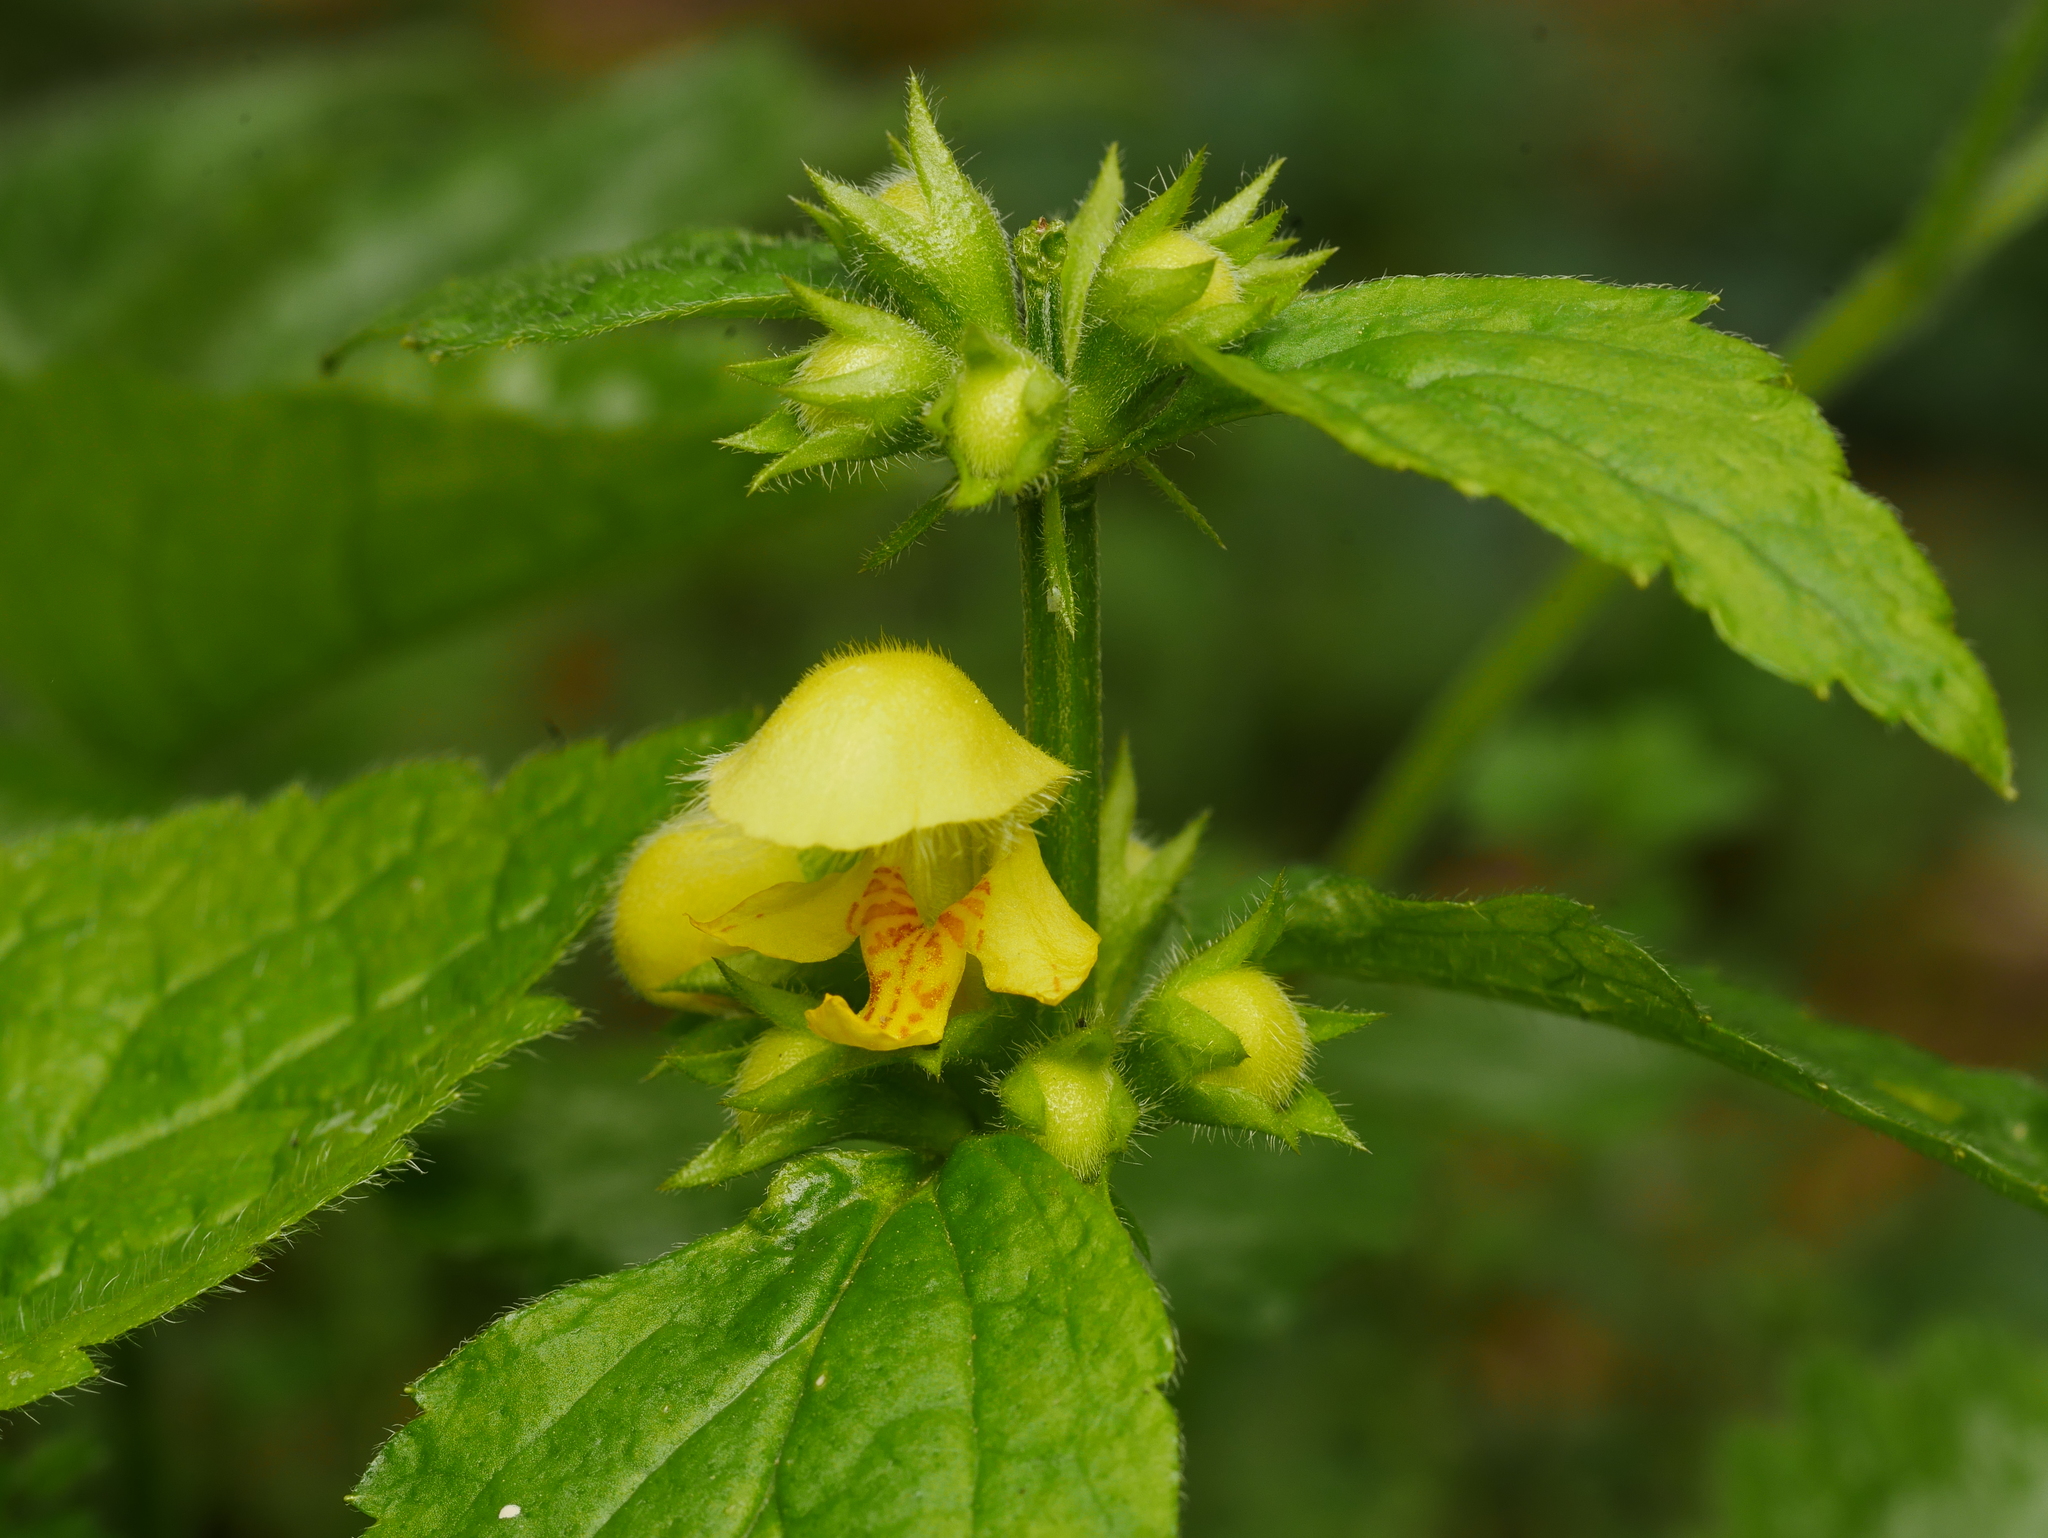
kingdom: Plantae
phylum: Tracheophyta
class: Magnoliopsida
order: Lamiales
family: Lamiaceae
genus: Lamium
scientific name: Lamium galeobdolon
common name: Yellow archangel
